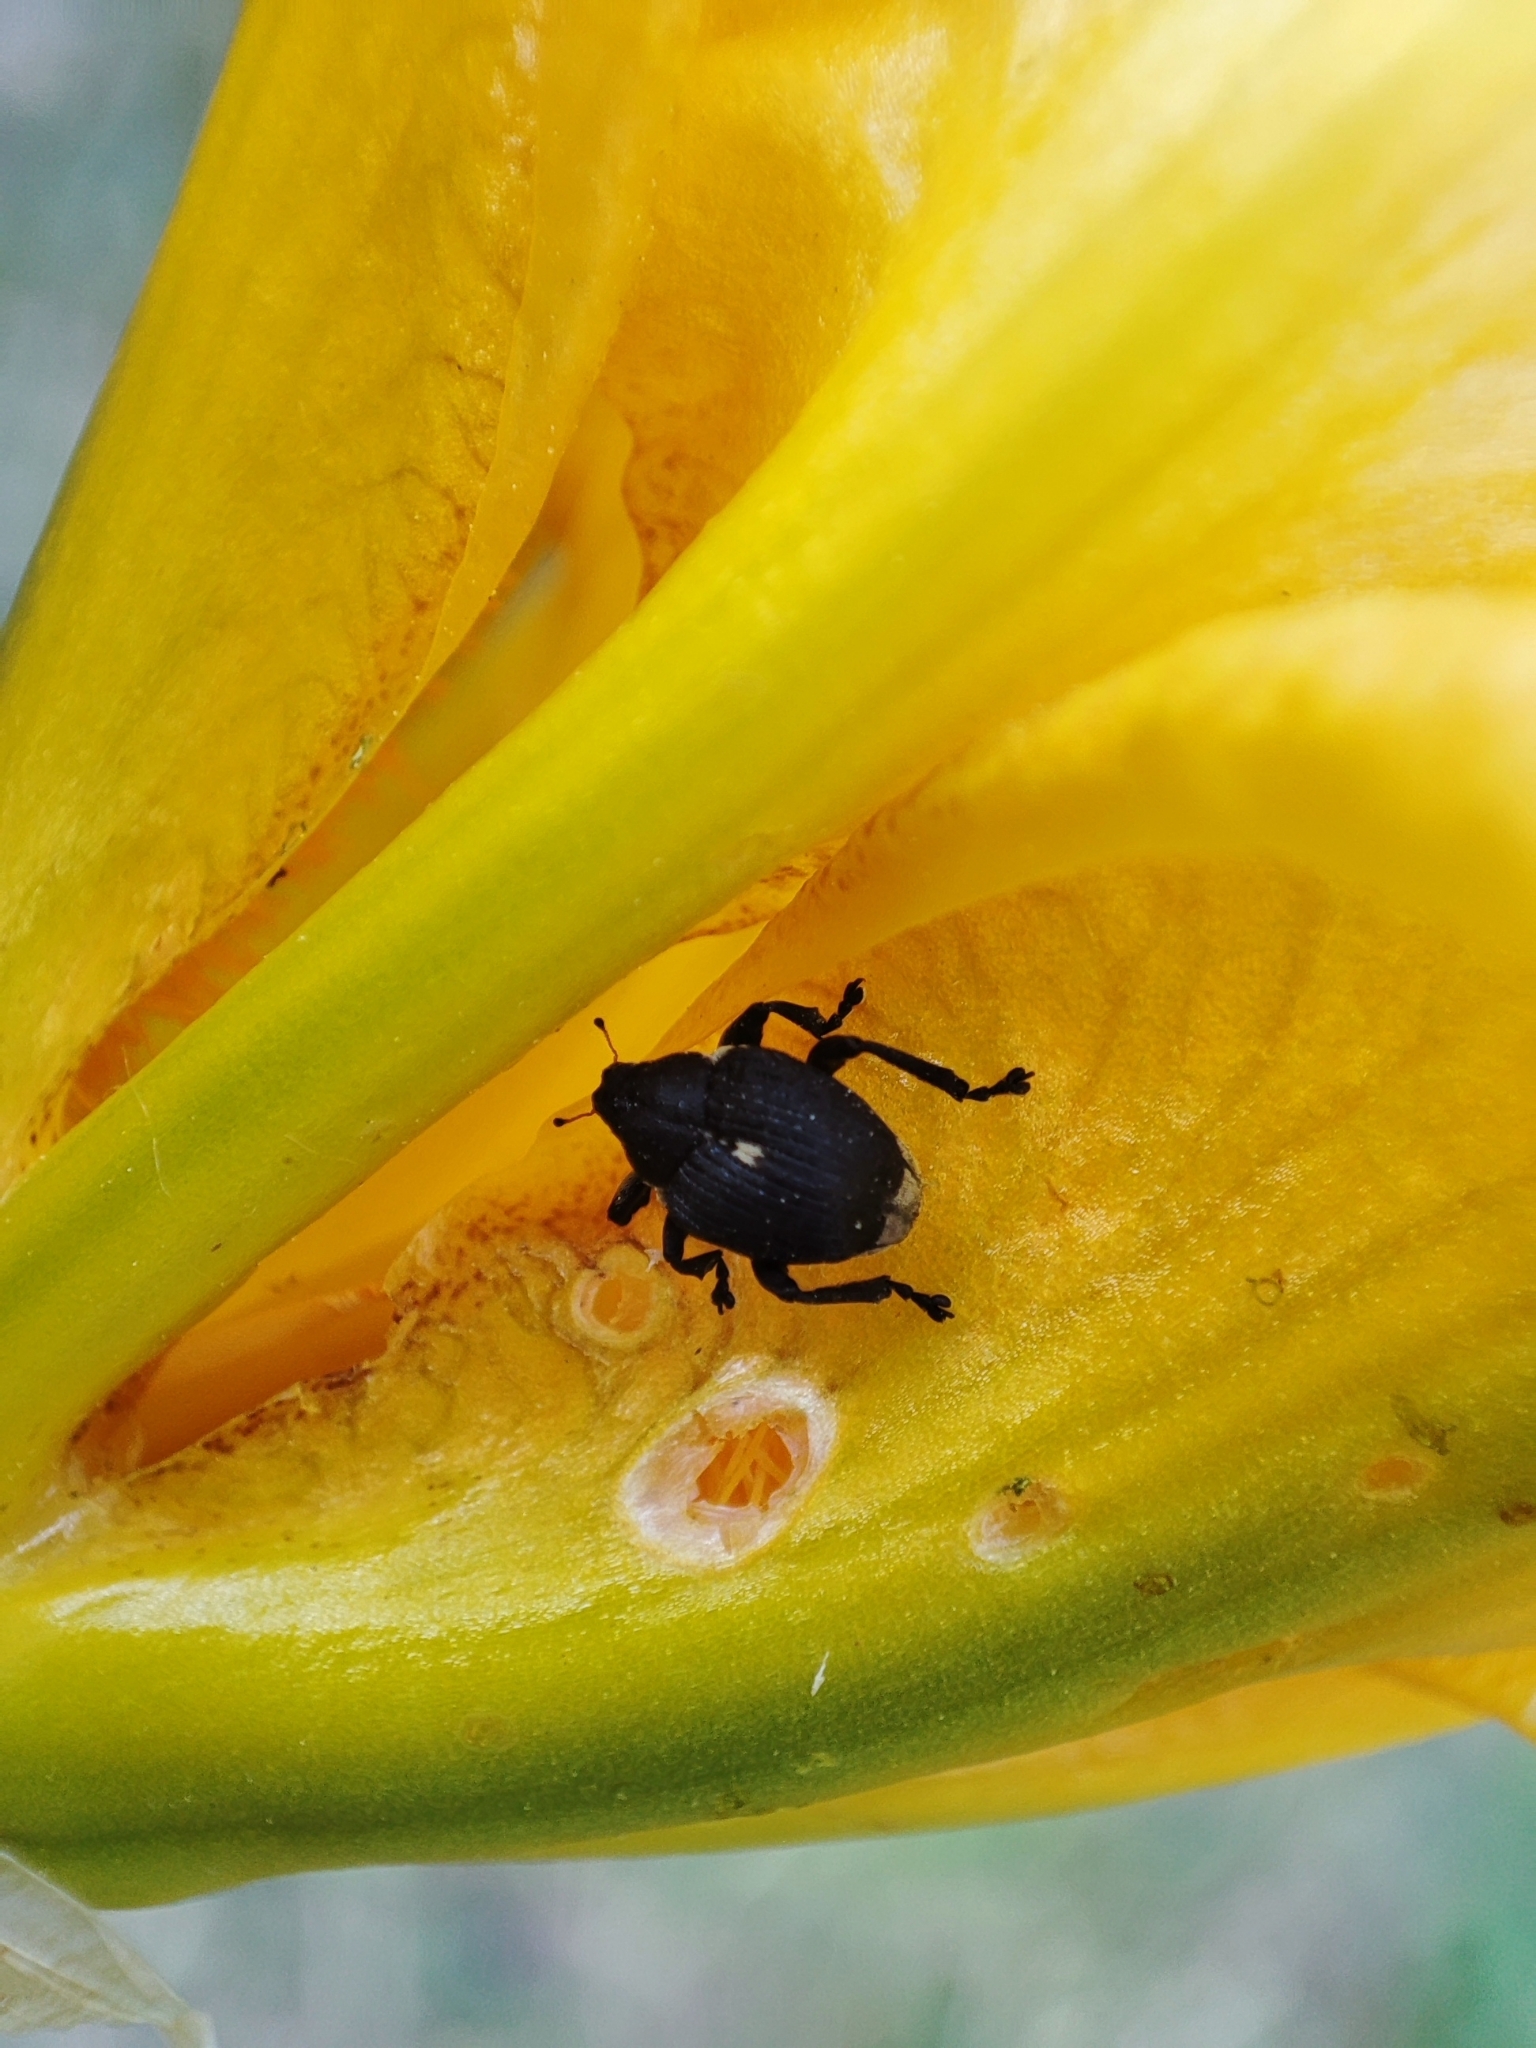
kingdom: Animalia
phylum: Arthropoda
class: Insecta
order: Coleoptera
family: Curculionidae
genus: Mononychus
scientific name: Mononychus punctumalbum
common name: Iris weevil
